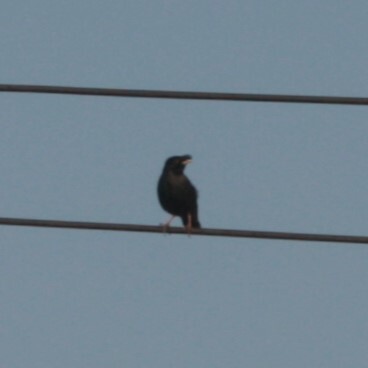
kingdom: Animalia
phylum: Chordata
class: Aves
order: Passeriformes
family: Sturnidae
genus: Acridotheres
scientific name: Acridotheres javanicus
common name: Javan myna
